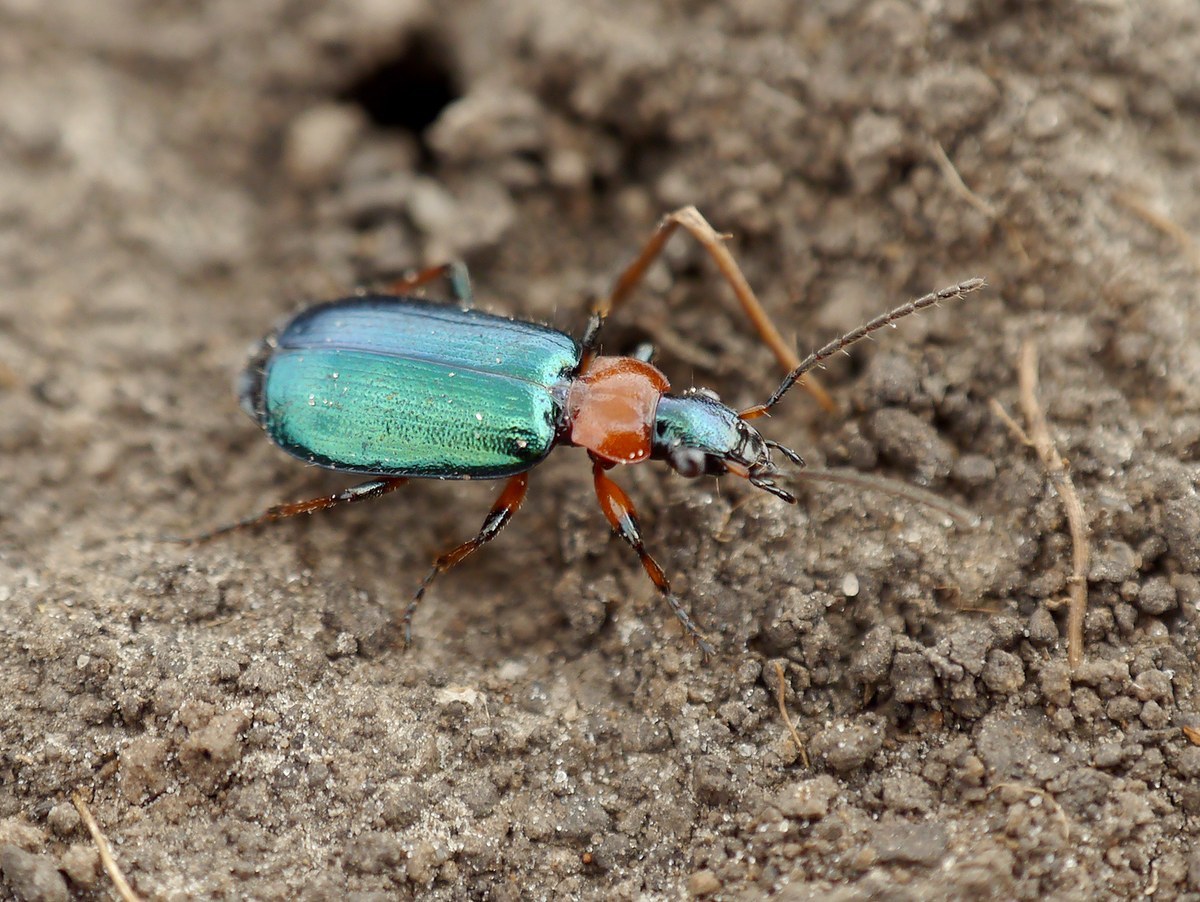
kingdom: Animalia
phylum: Arthropoda
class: Insecta
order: Coleoptera
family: Carabidae
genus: Lebia
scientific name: Lebia cyanocephala
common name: Blue plunderer
